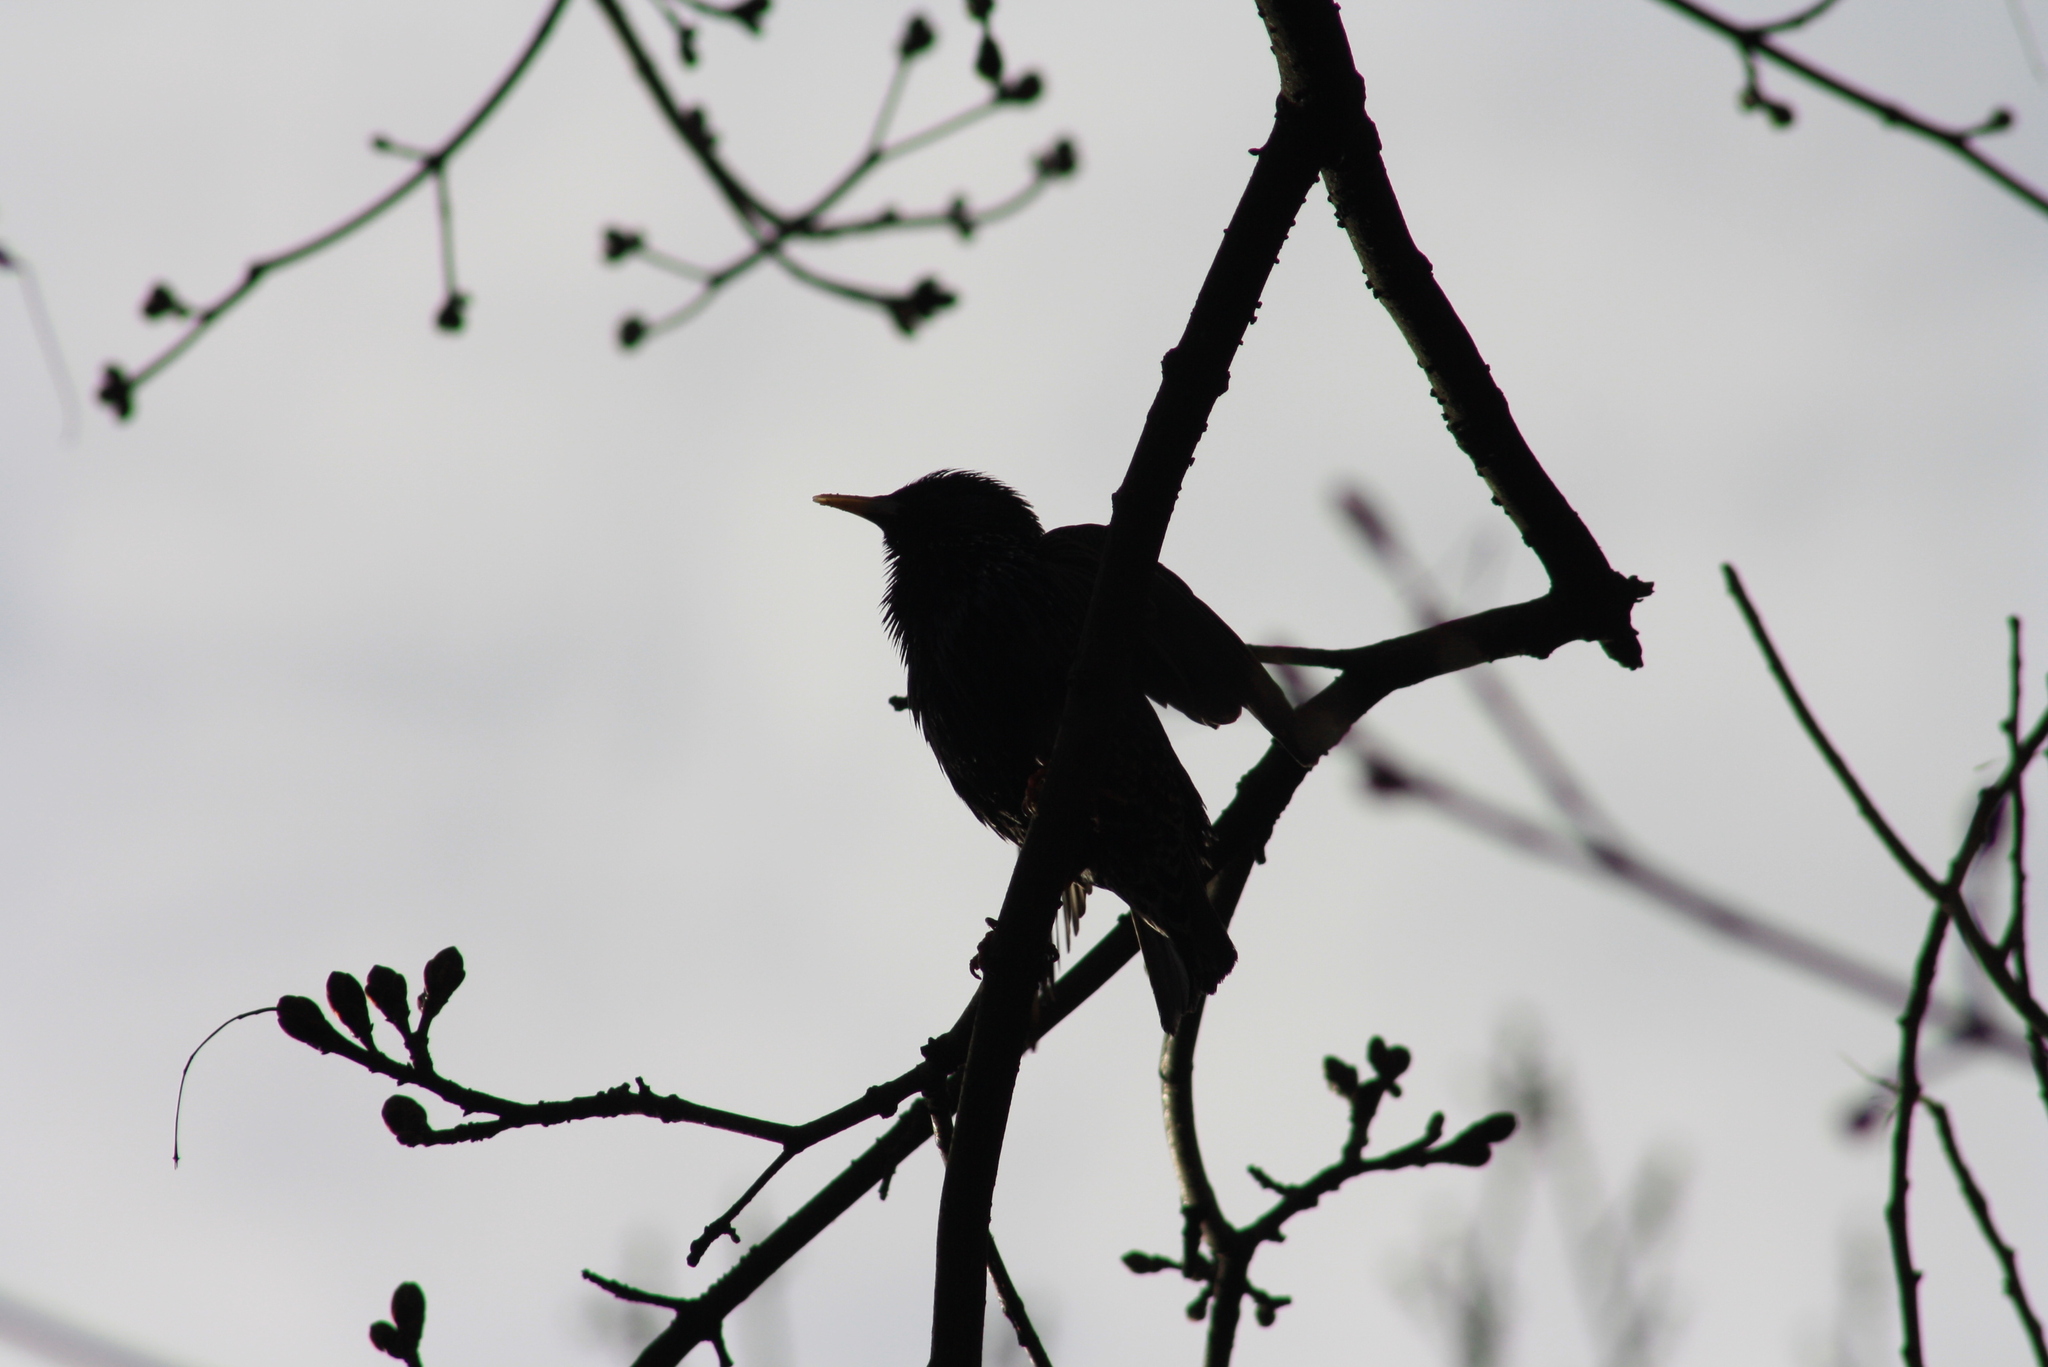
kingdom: Animalia
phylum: Chordata
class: Aves
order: Passeriformes
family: Sturnidae
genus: Sturnus
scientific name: Sturnus vulgaris
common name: Common starling
